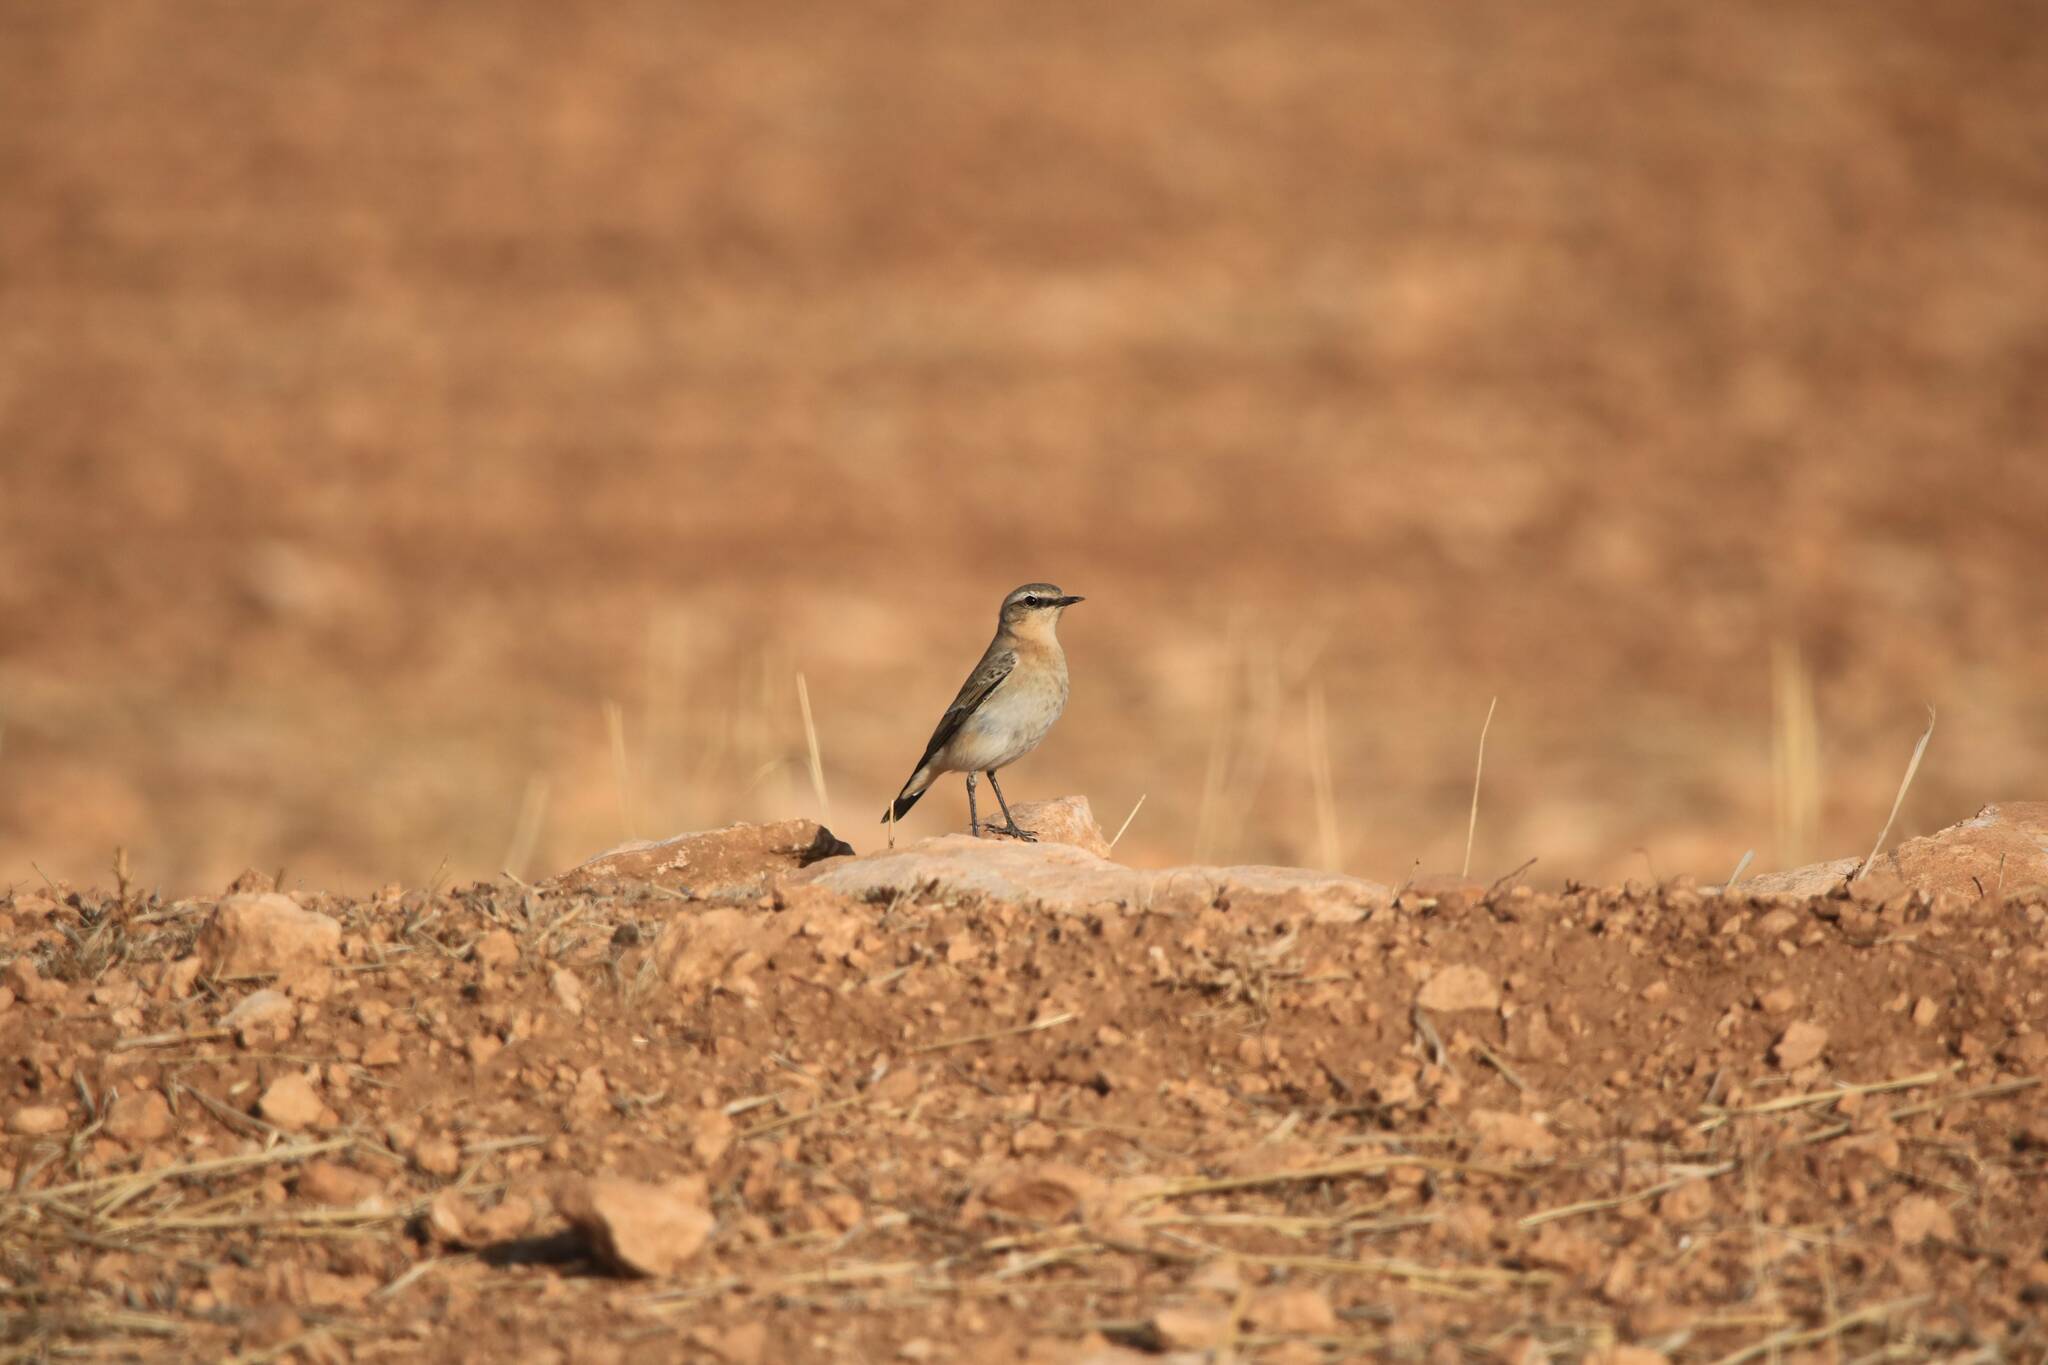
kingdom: Animalia
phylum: Chordata
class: Aves
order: Passeriformes
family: Muscicapidae
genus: Oenanthe
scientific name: Oenanthe oenanthe
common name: Northern wheatear
